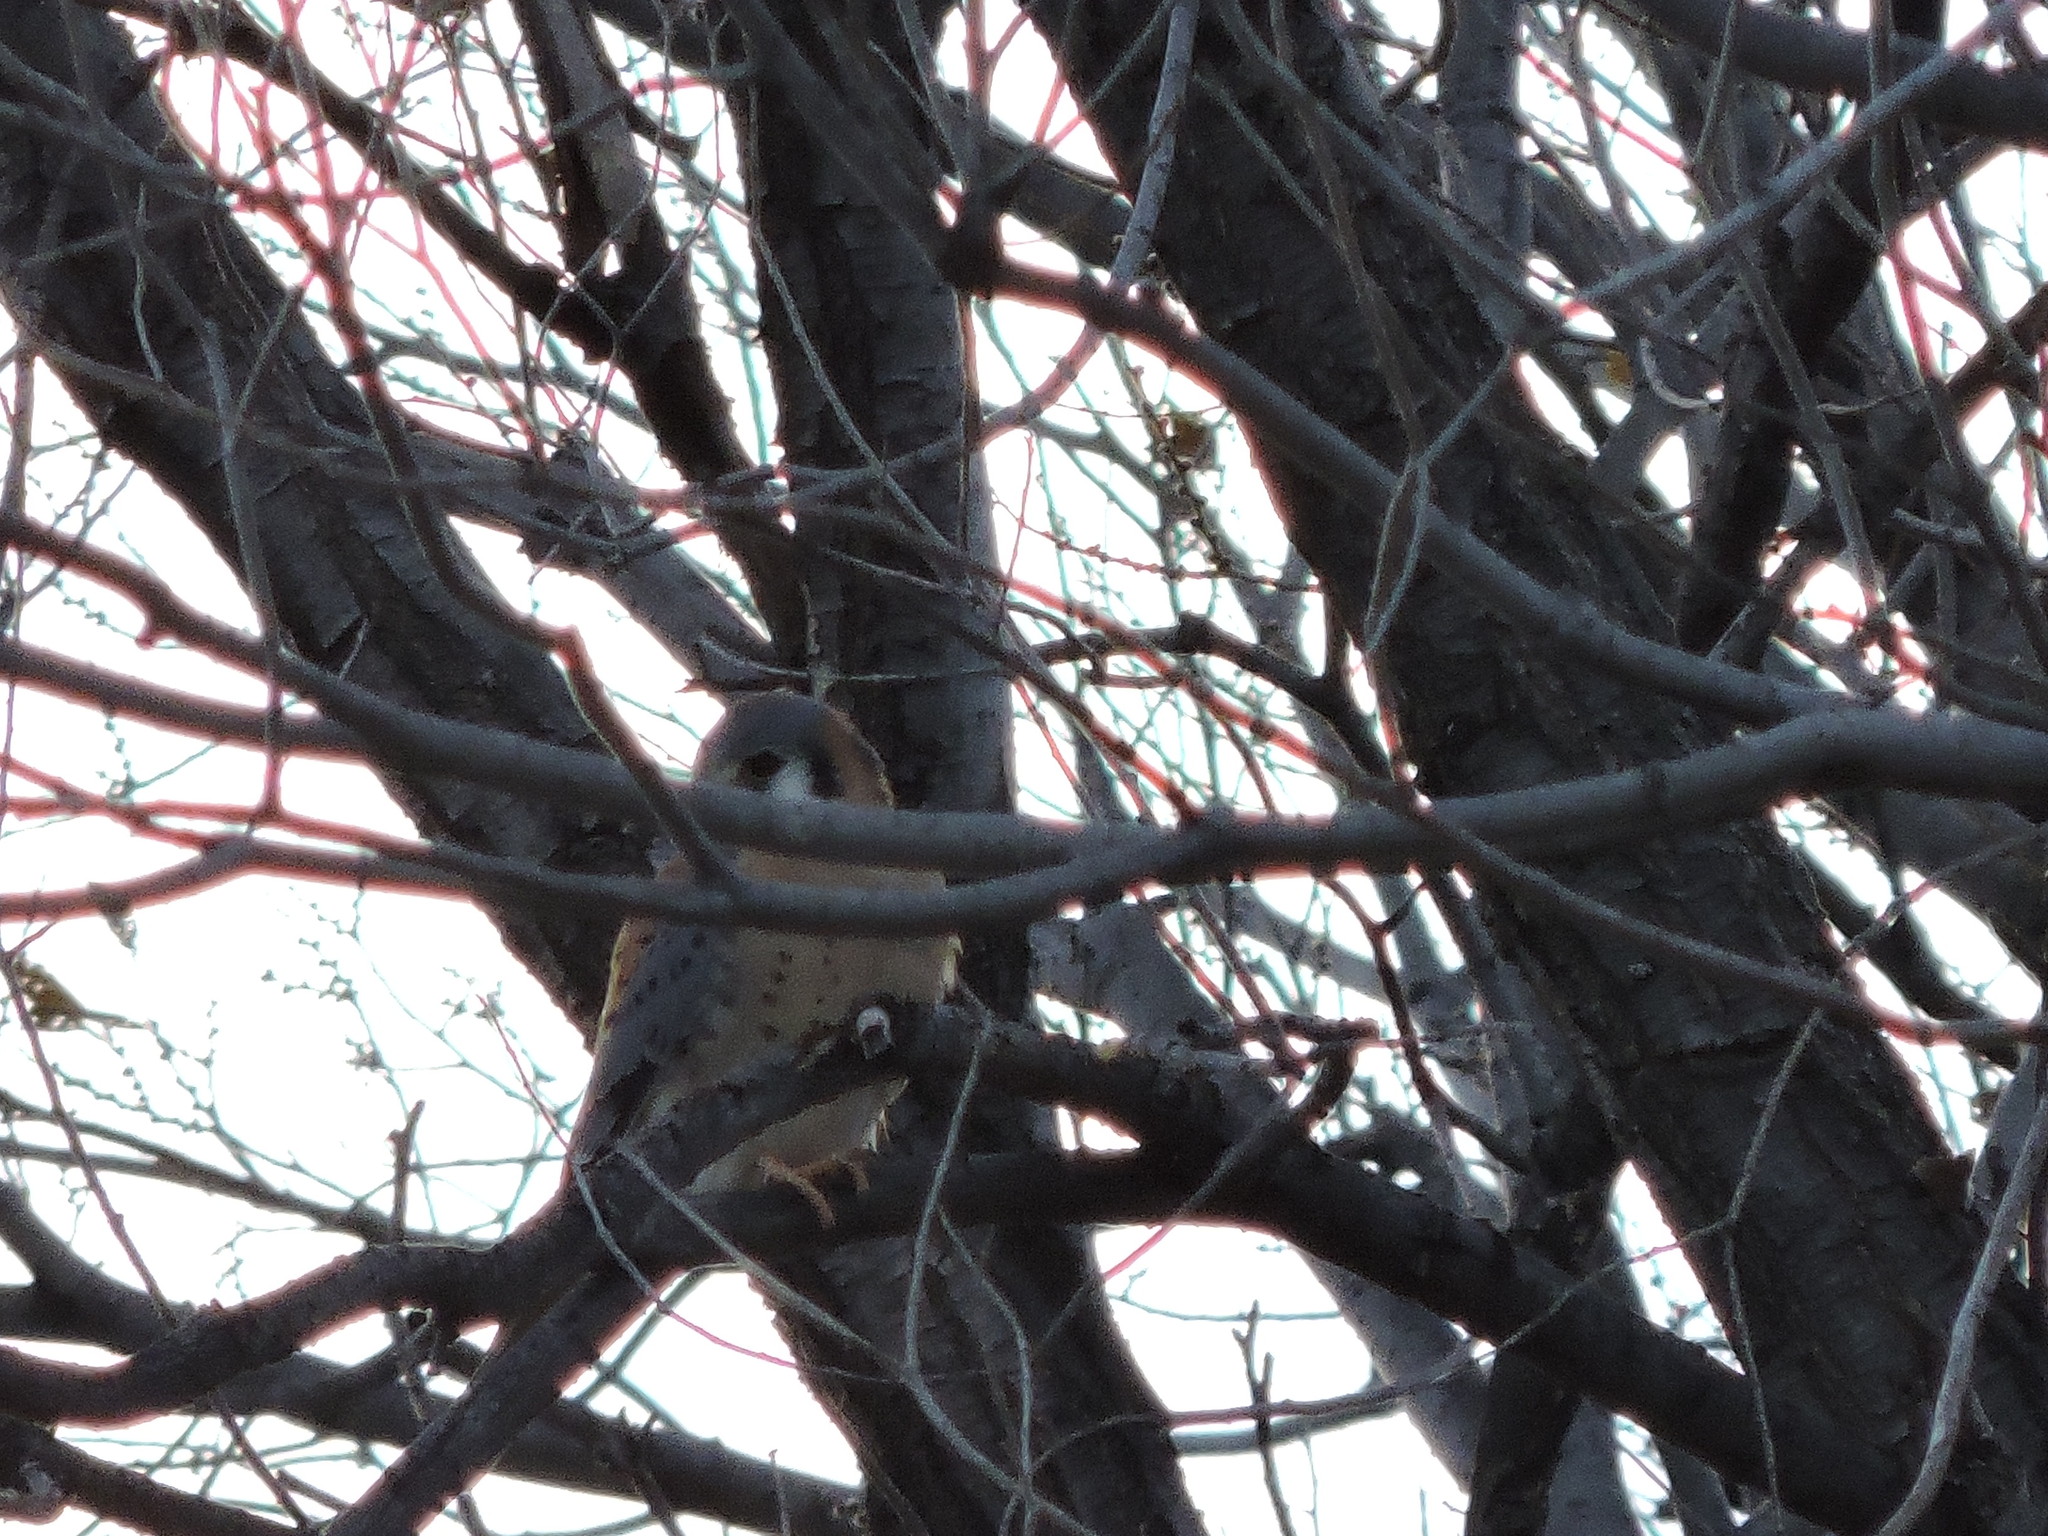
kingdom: Animalia
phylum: Chordata
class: Aves
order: Falconiformes
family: Falconidae
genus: Falco
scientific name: Falco sparverius
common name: American kestrel
